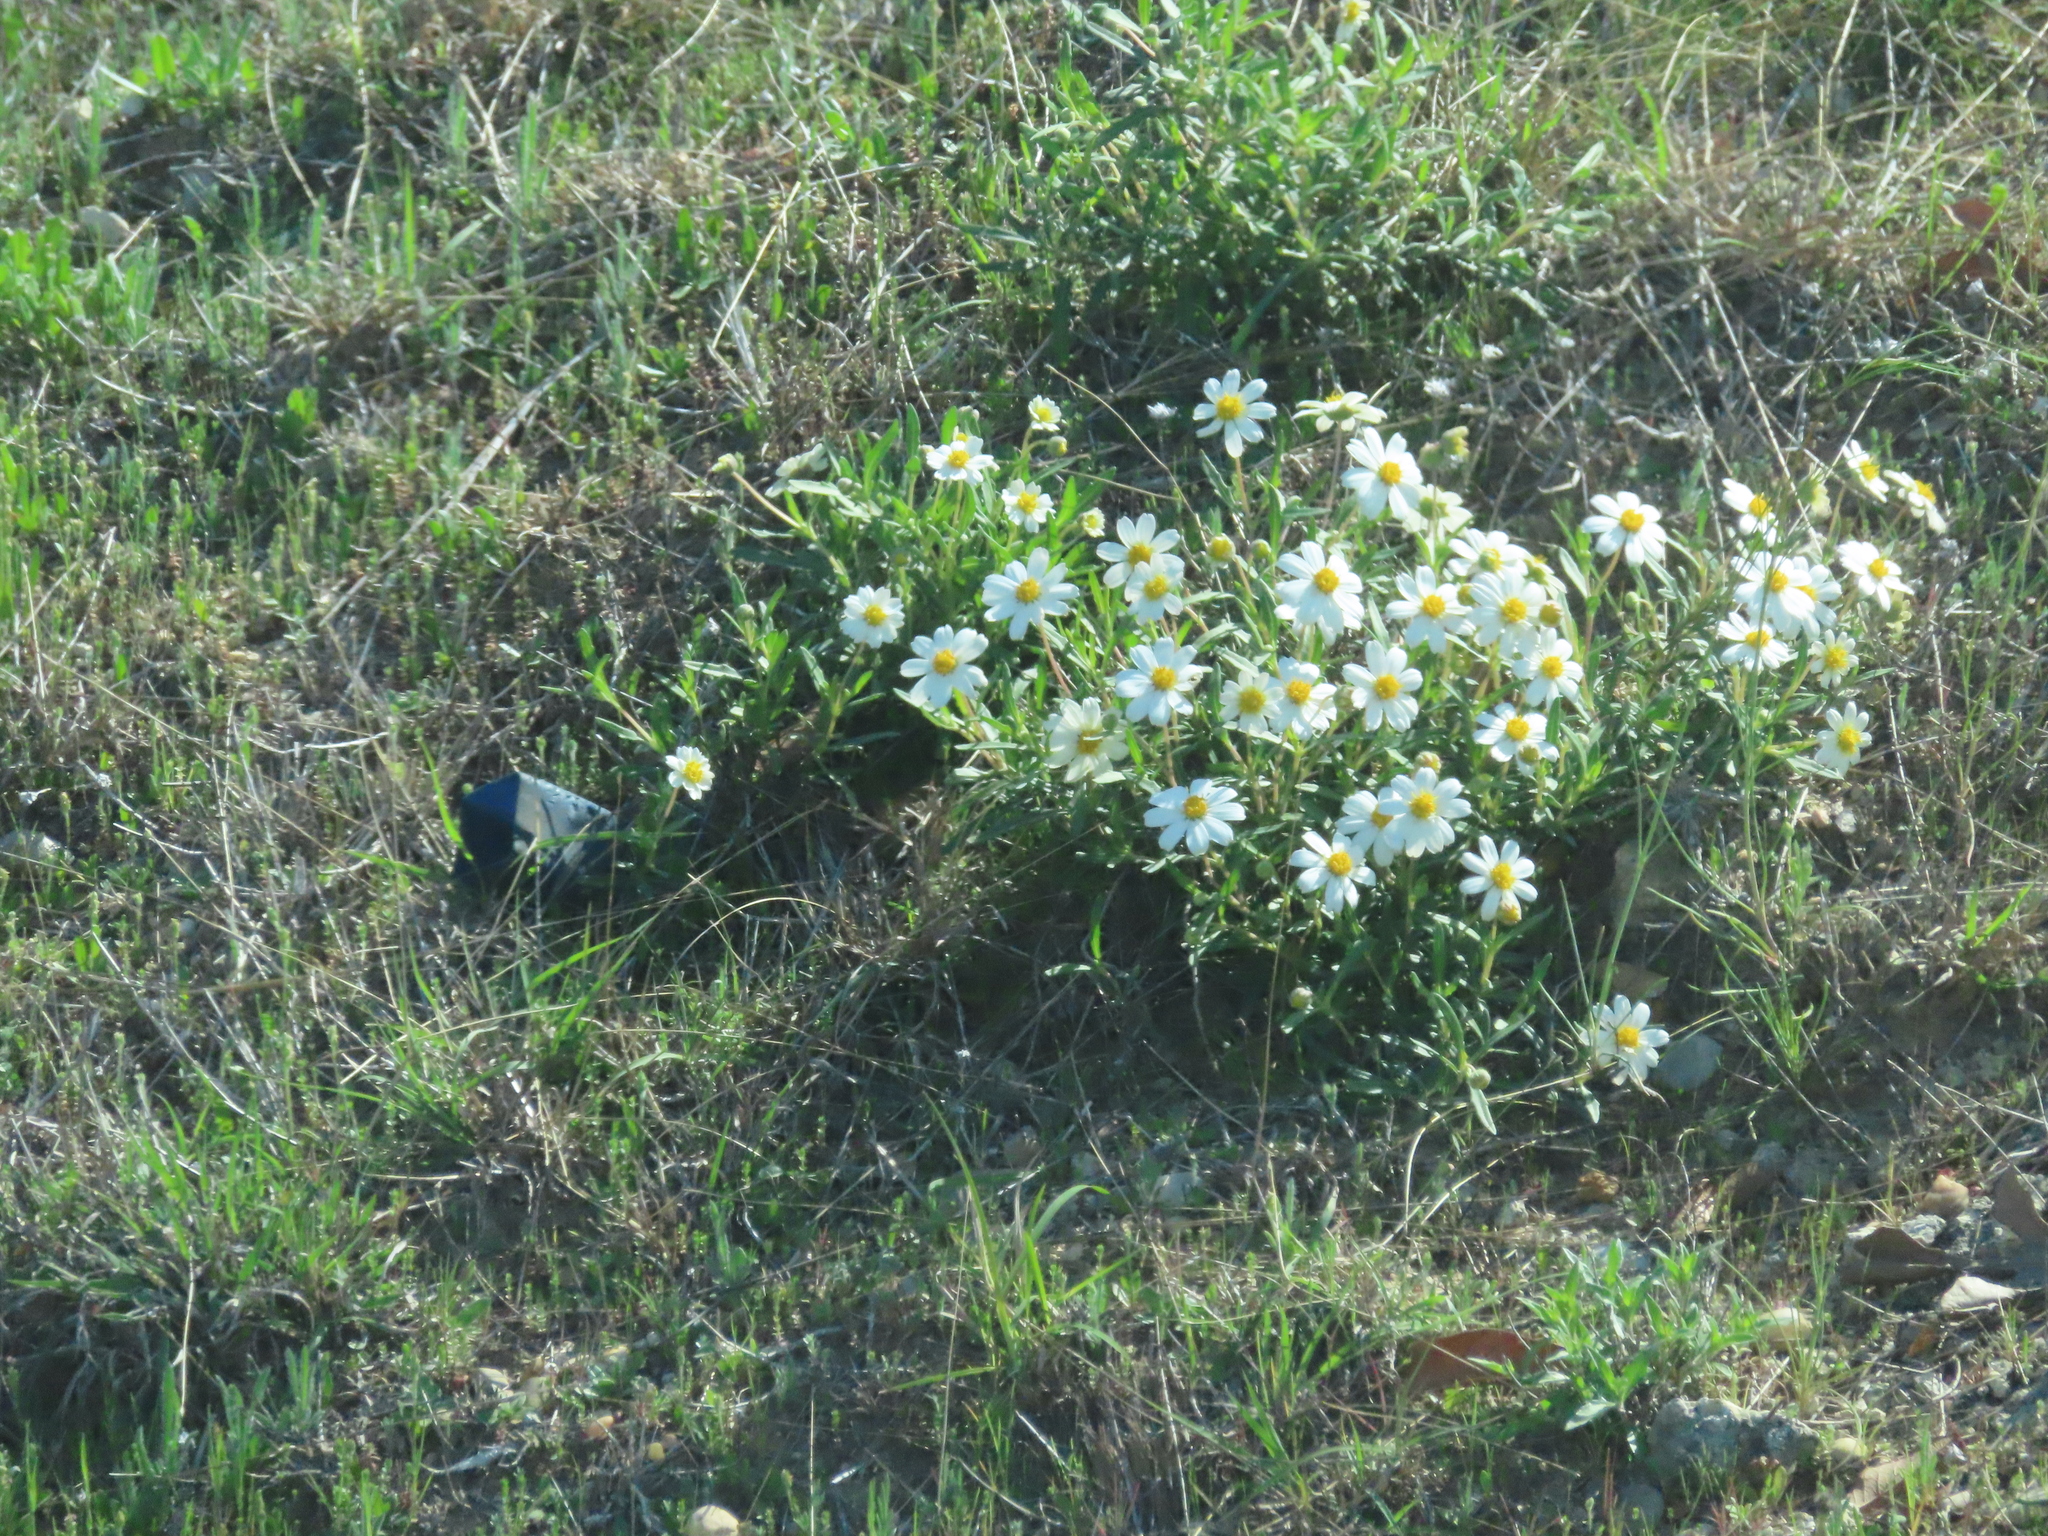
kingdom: Plantae
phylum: Tracheophyta
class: Magnoliopsida
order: Asterales
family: Asteraceae
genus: Melampodium
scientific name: Melampodium leucanthum
